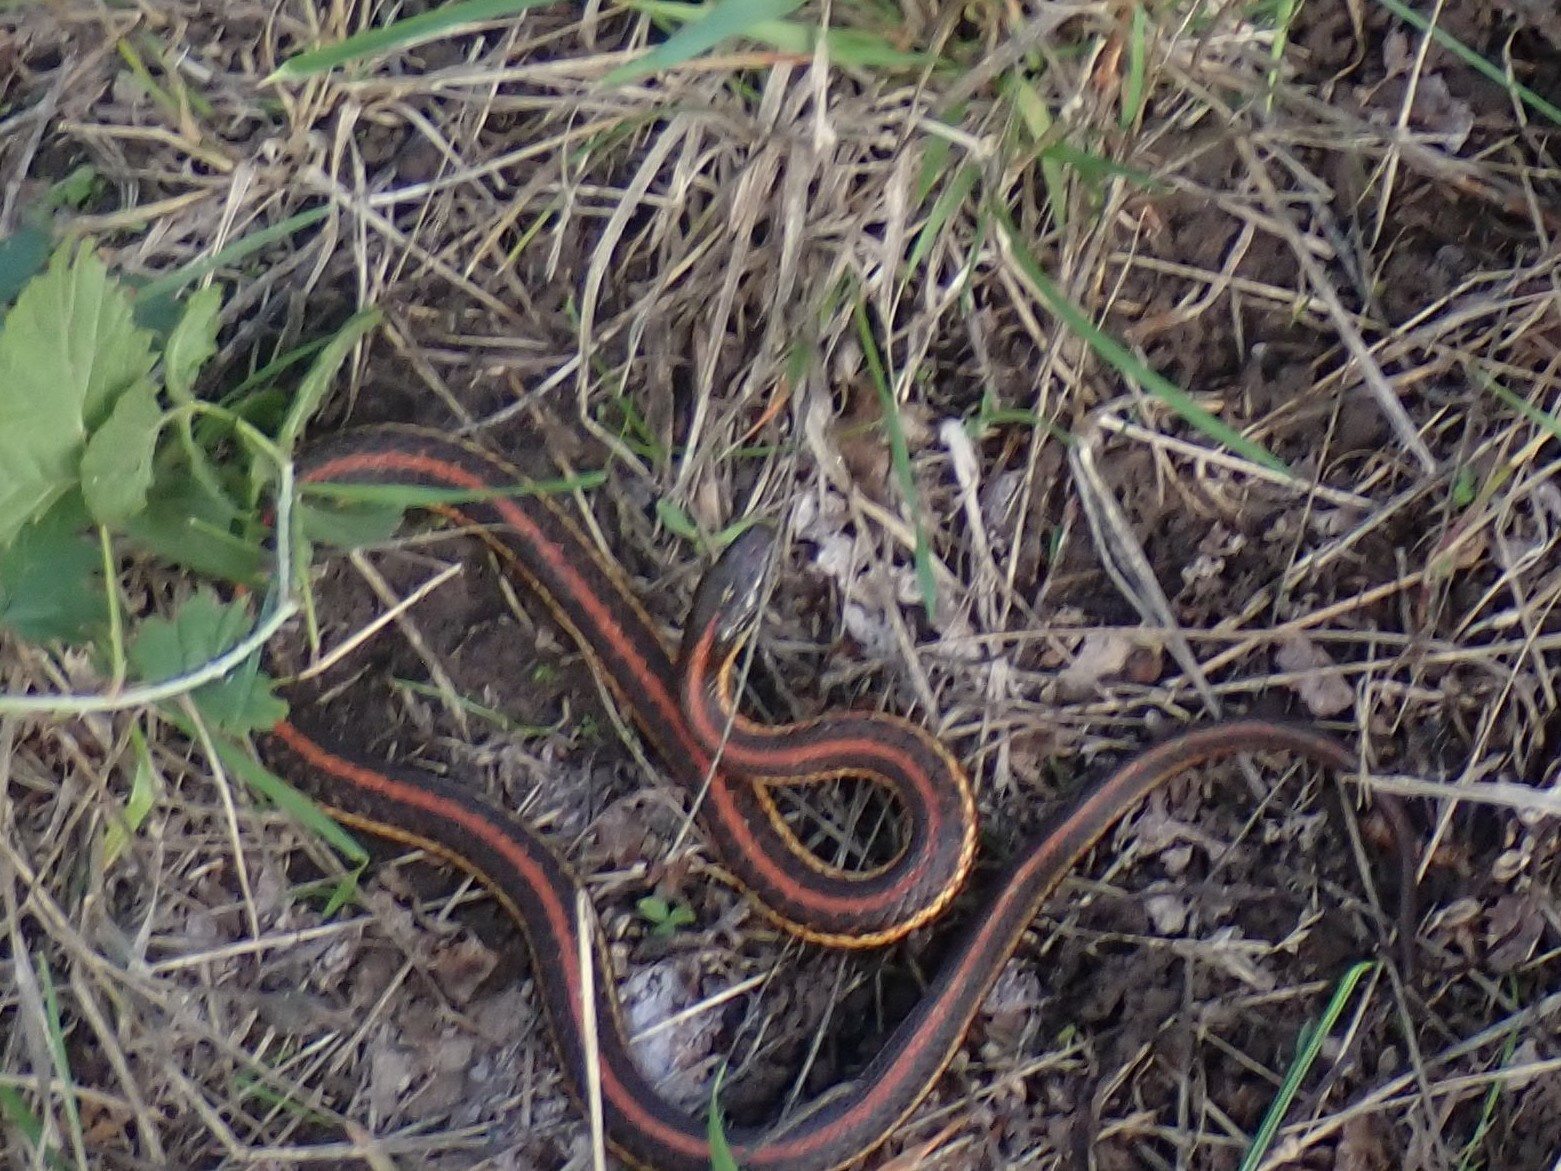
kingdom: Animalia
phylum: Chordata
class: Squamata
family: Colubridae
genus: Thamnophis
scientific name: Thamnophis ordinoides
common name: Northwestern garter snake
